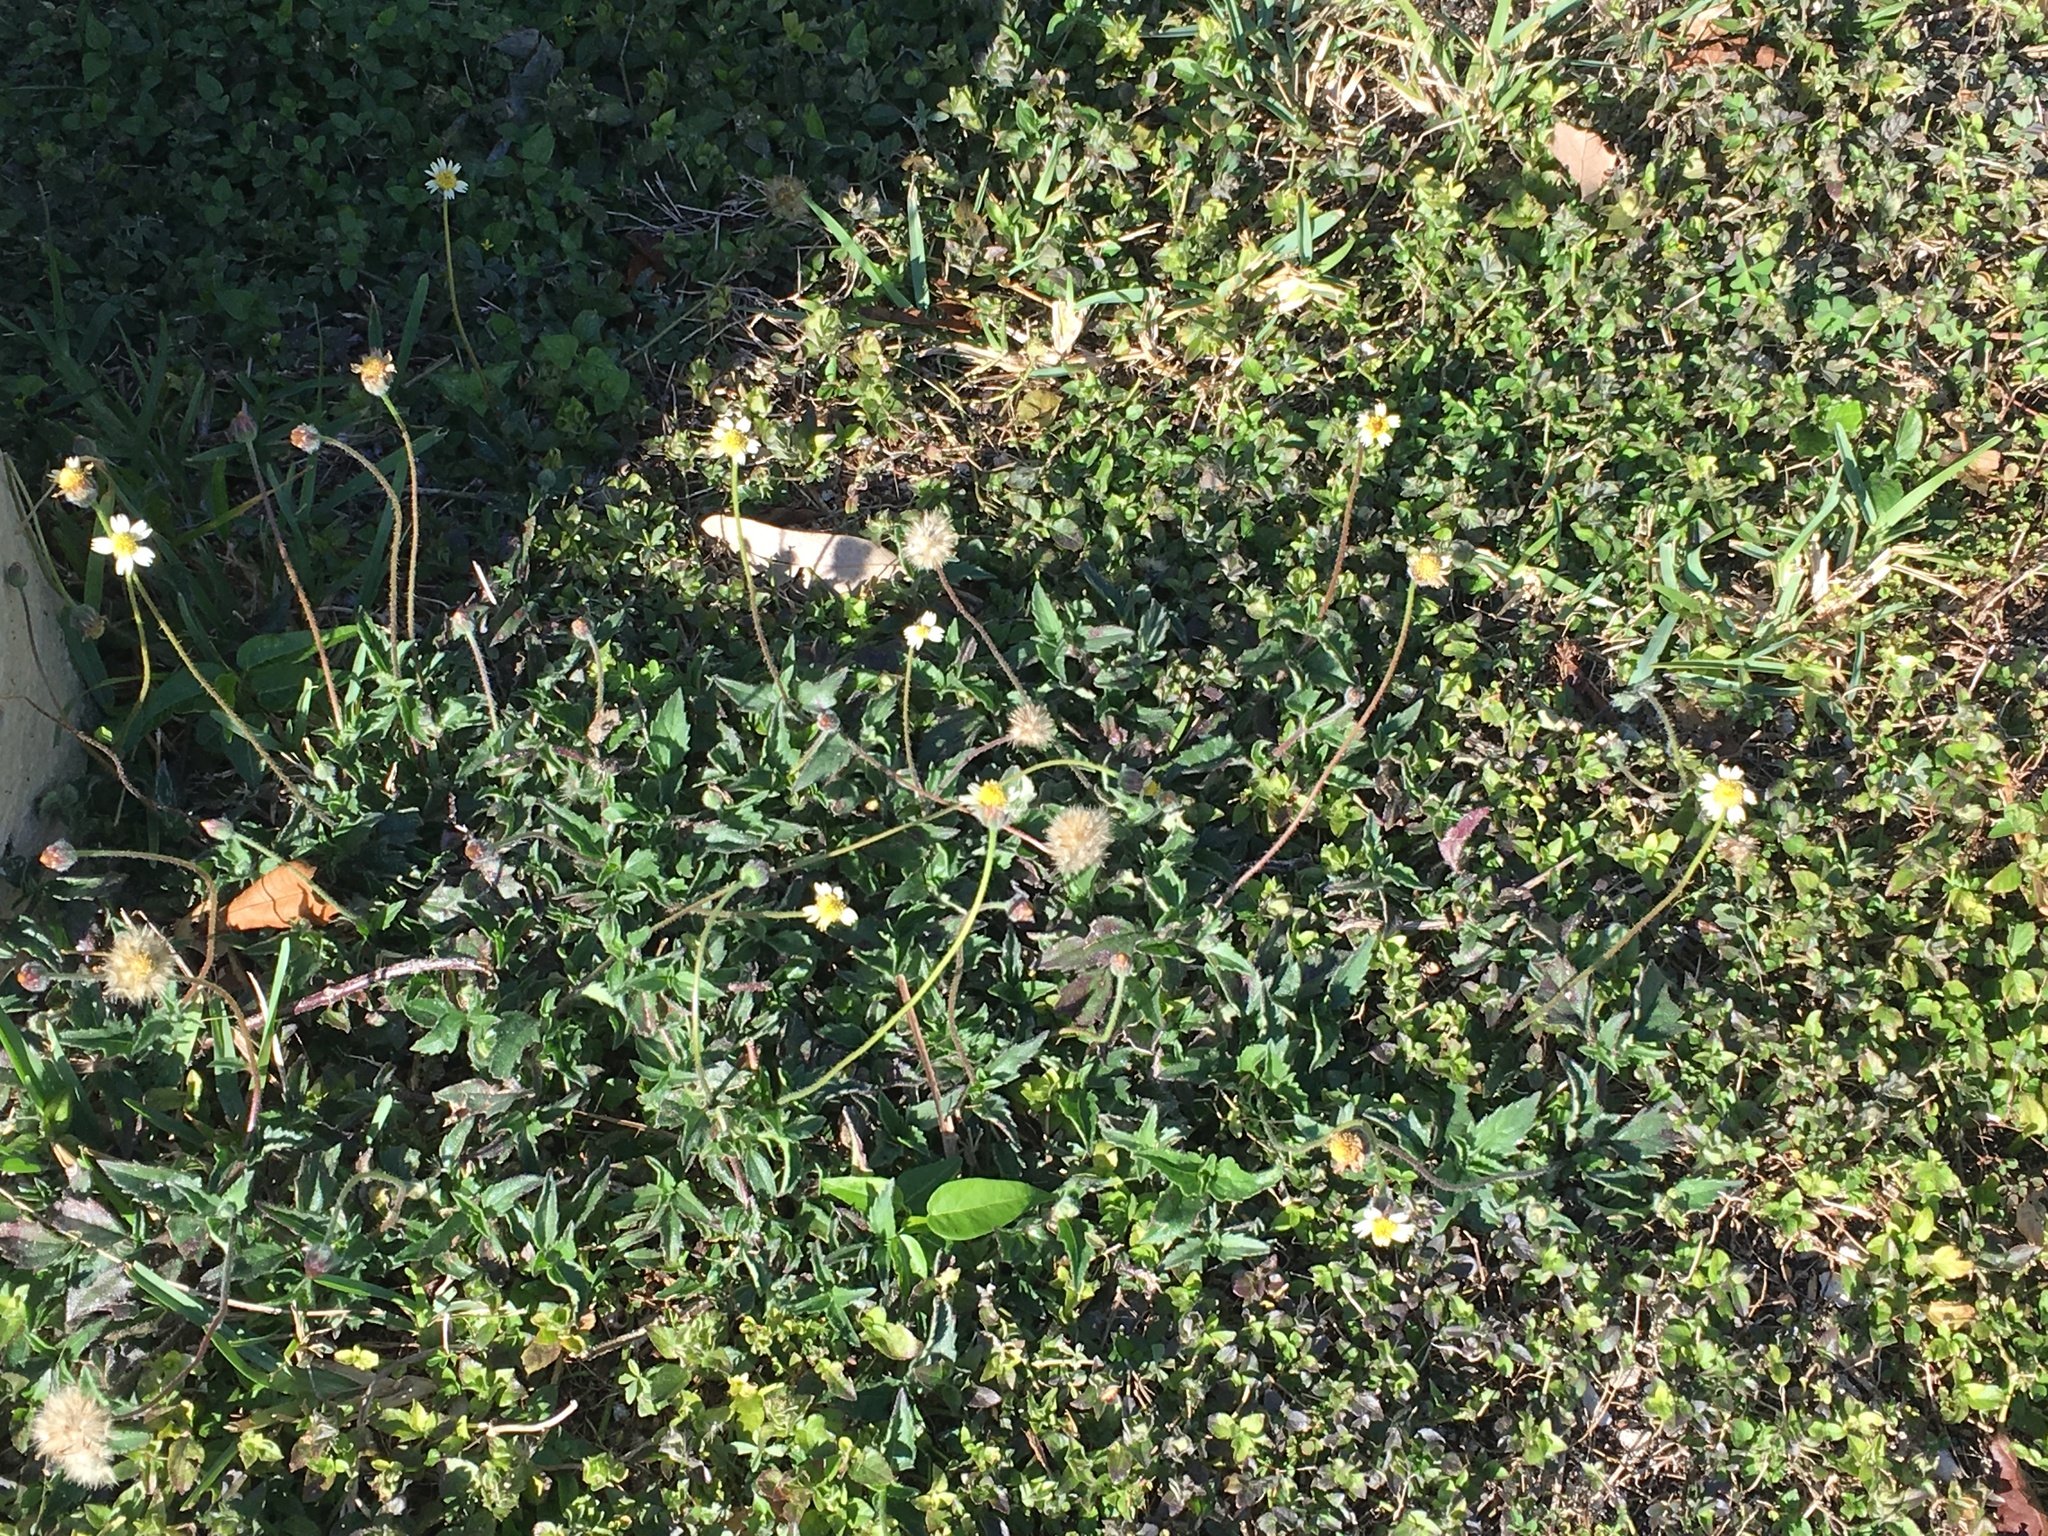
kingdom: Plantae
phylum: Tracheophyta
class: Magnoliopsida
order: Asterales
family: Asteraceae
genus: Tridax
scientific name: Tridax procumbens
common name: Coatbuttons
